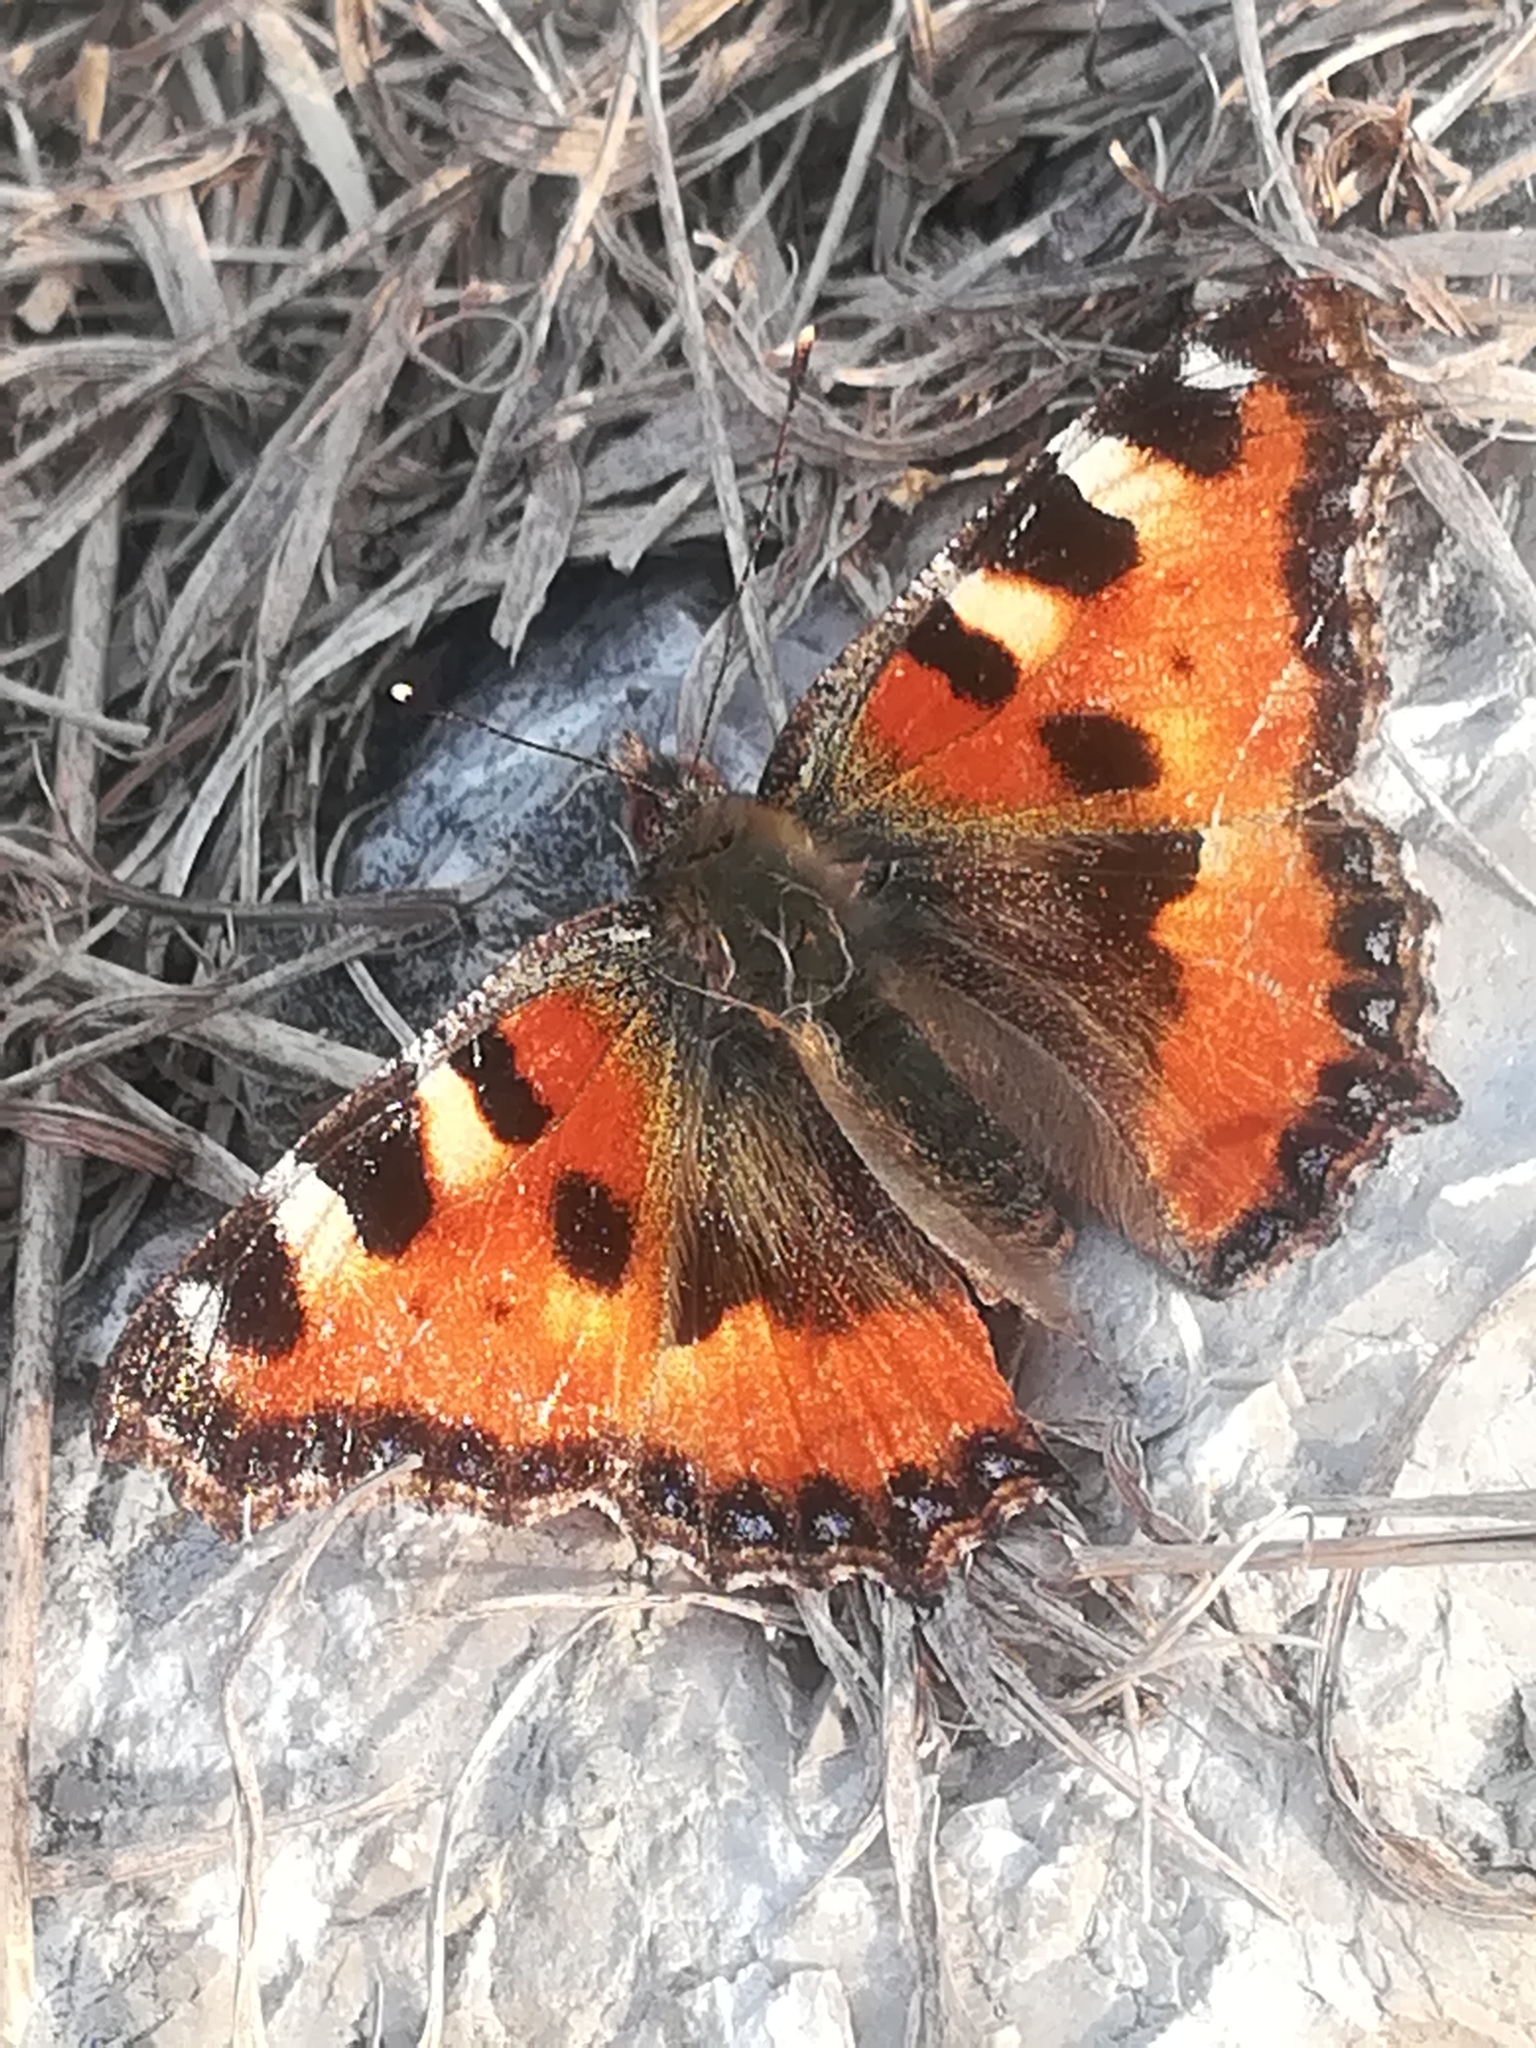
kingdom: Animalia
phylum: Arthropoda
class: Insecta
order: Lepidoptera
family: Nymphalidae
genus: Aglais
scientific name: Aglais urticae
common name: Small tortoiseshell
